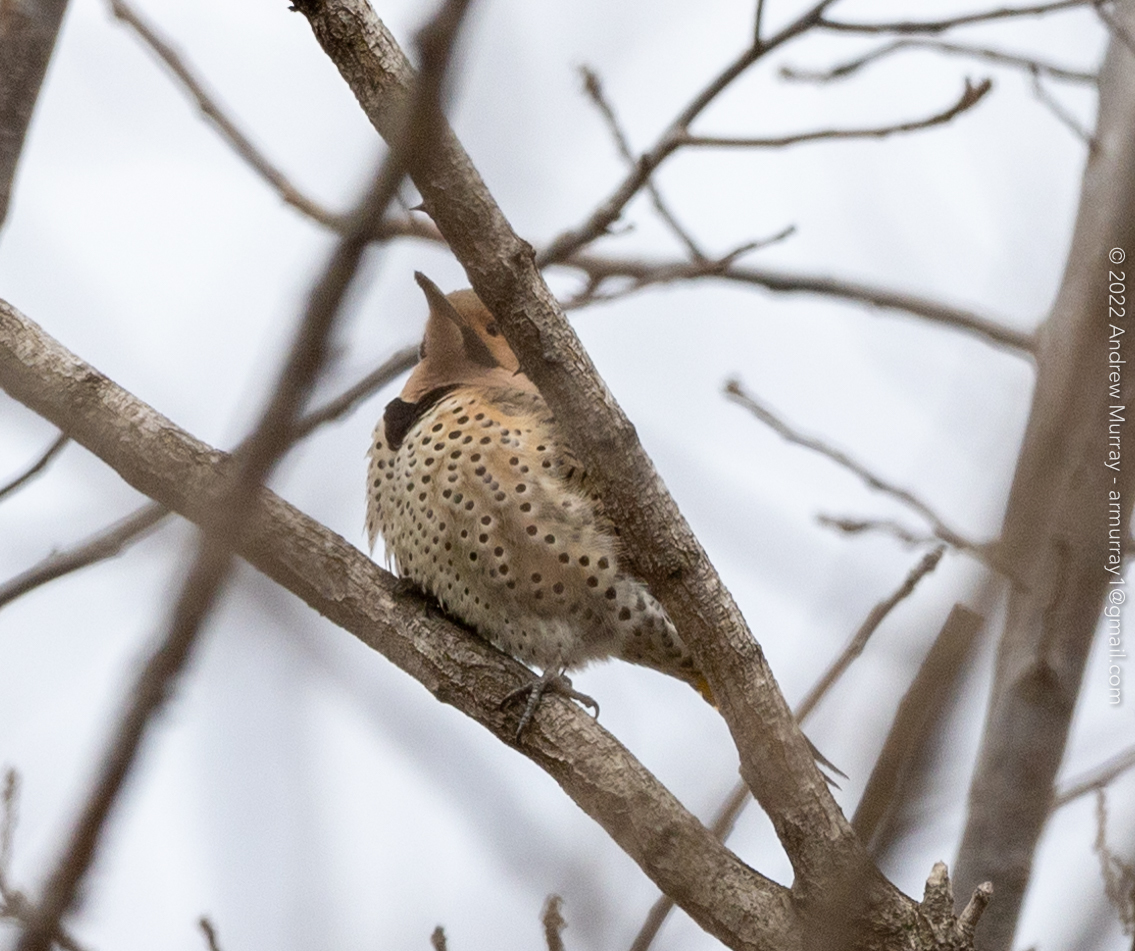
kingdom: Animalia
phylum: Chordata
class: Aves
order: Piciformes
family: Picidae
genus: Colaptes
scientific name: Colaptes auratus
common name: Northern flicker
